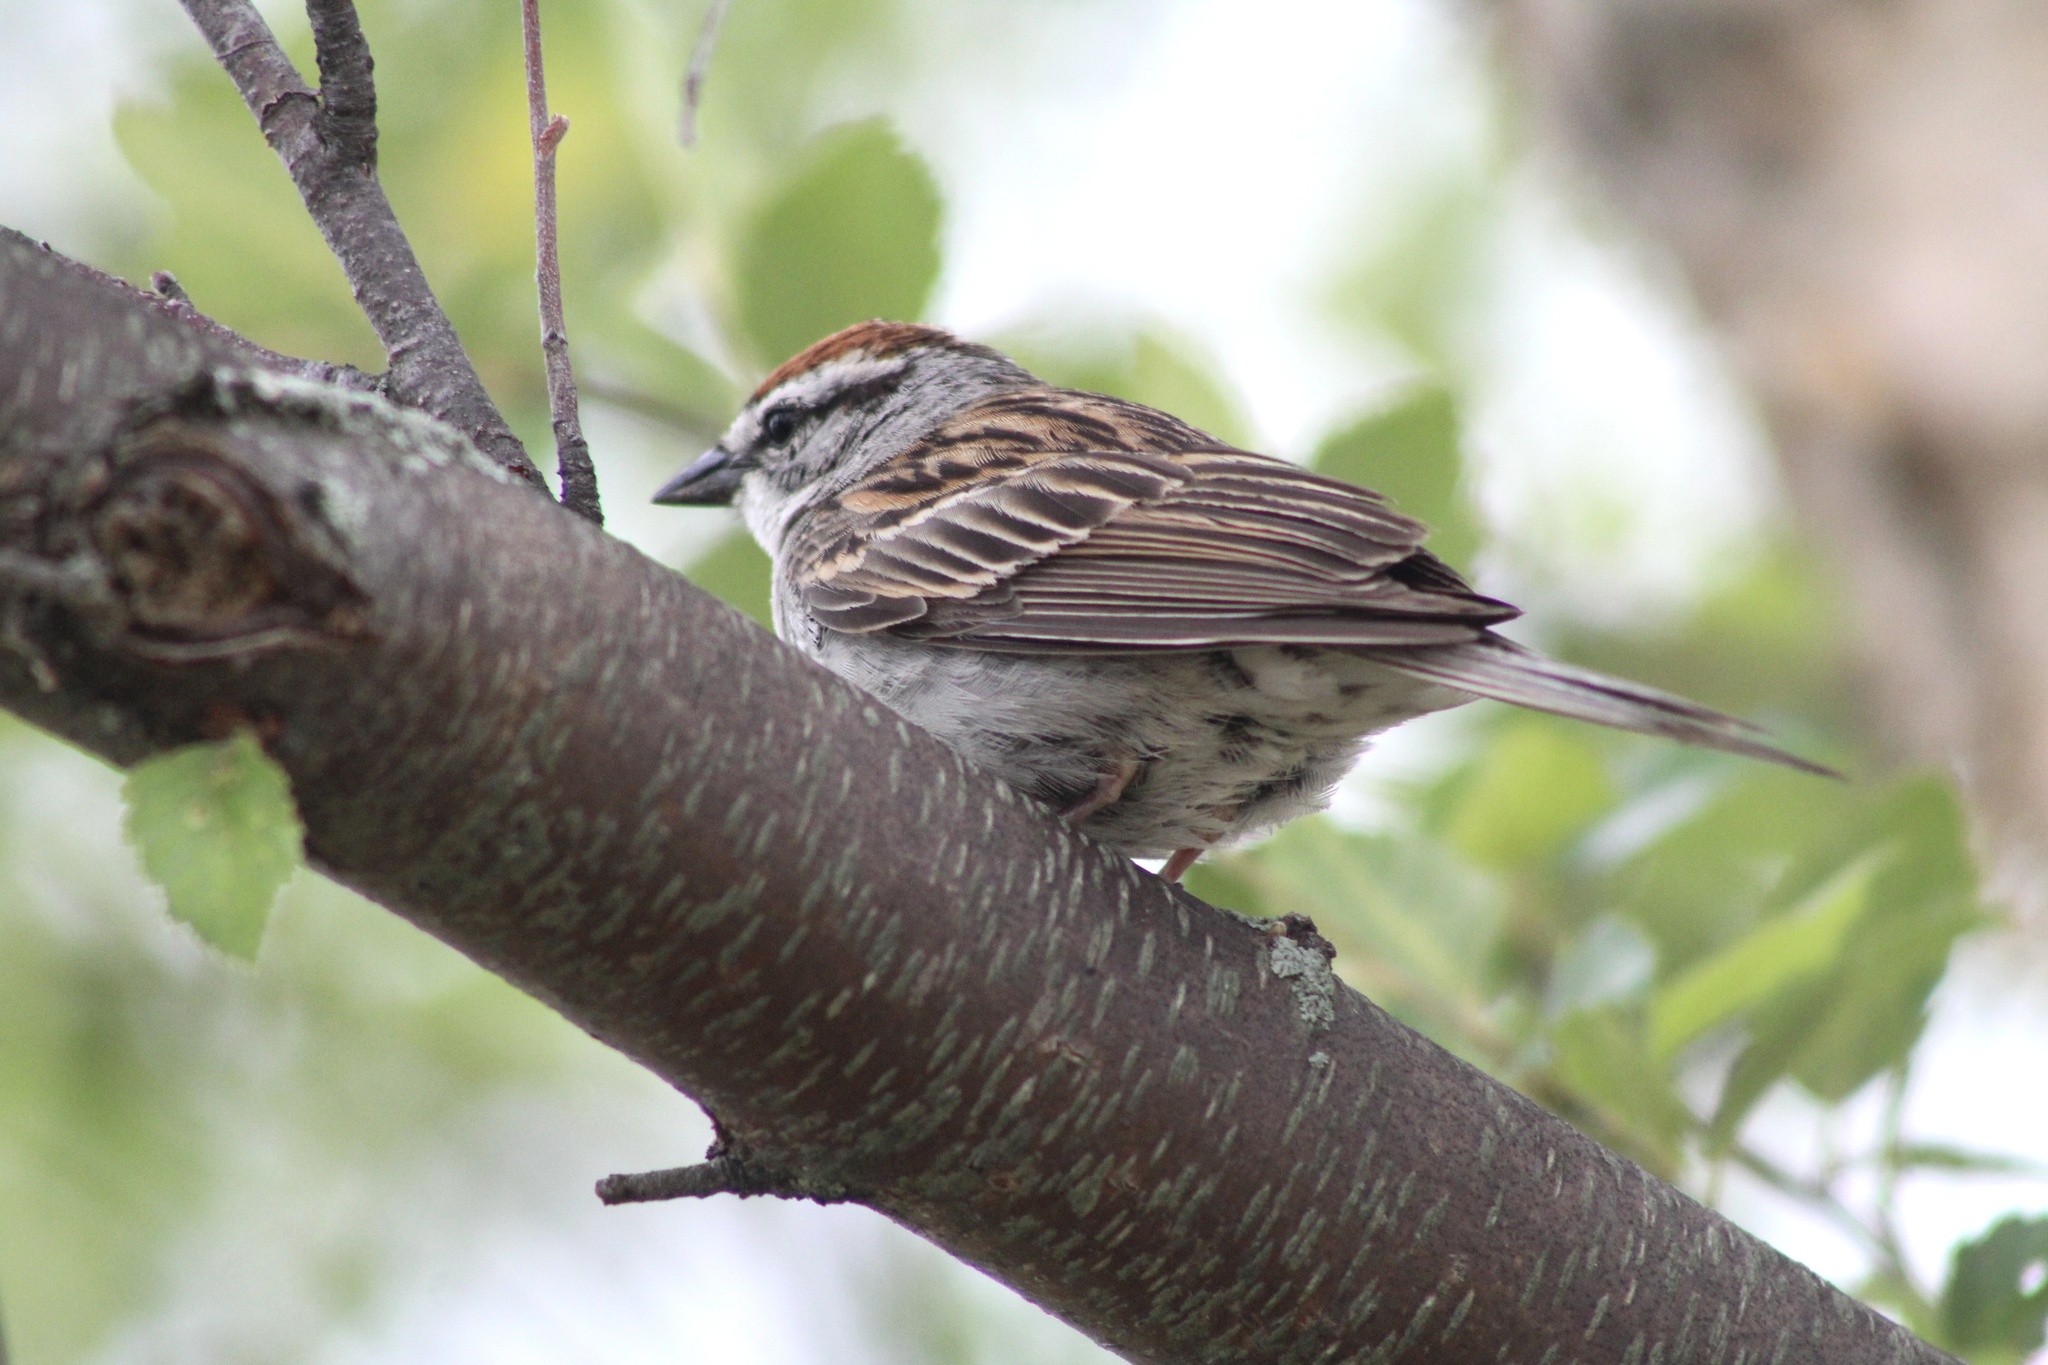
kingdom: Animalia
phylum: Chordata
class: Aves
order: Passeriformes
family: Passerellidae
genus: Spizella
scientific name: Spizella passerina
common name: Chipping sparrow
